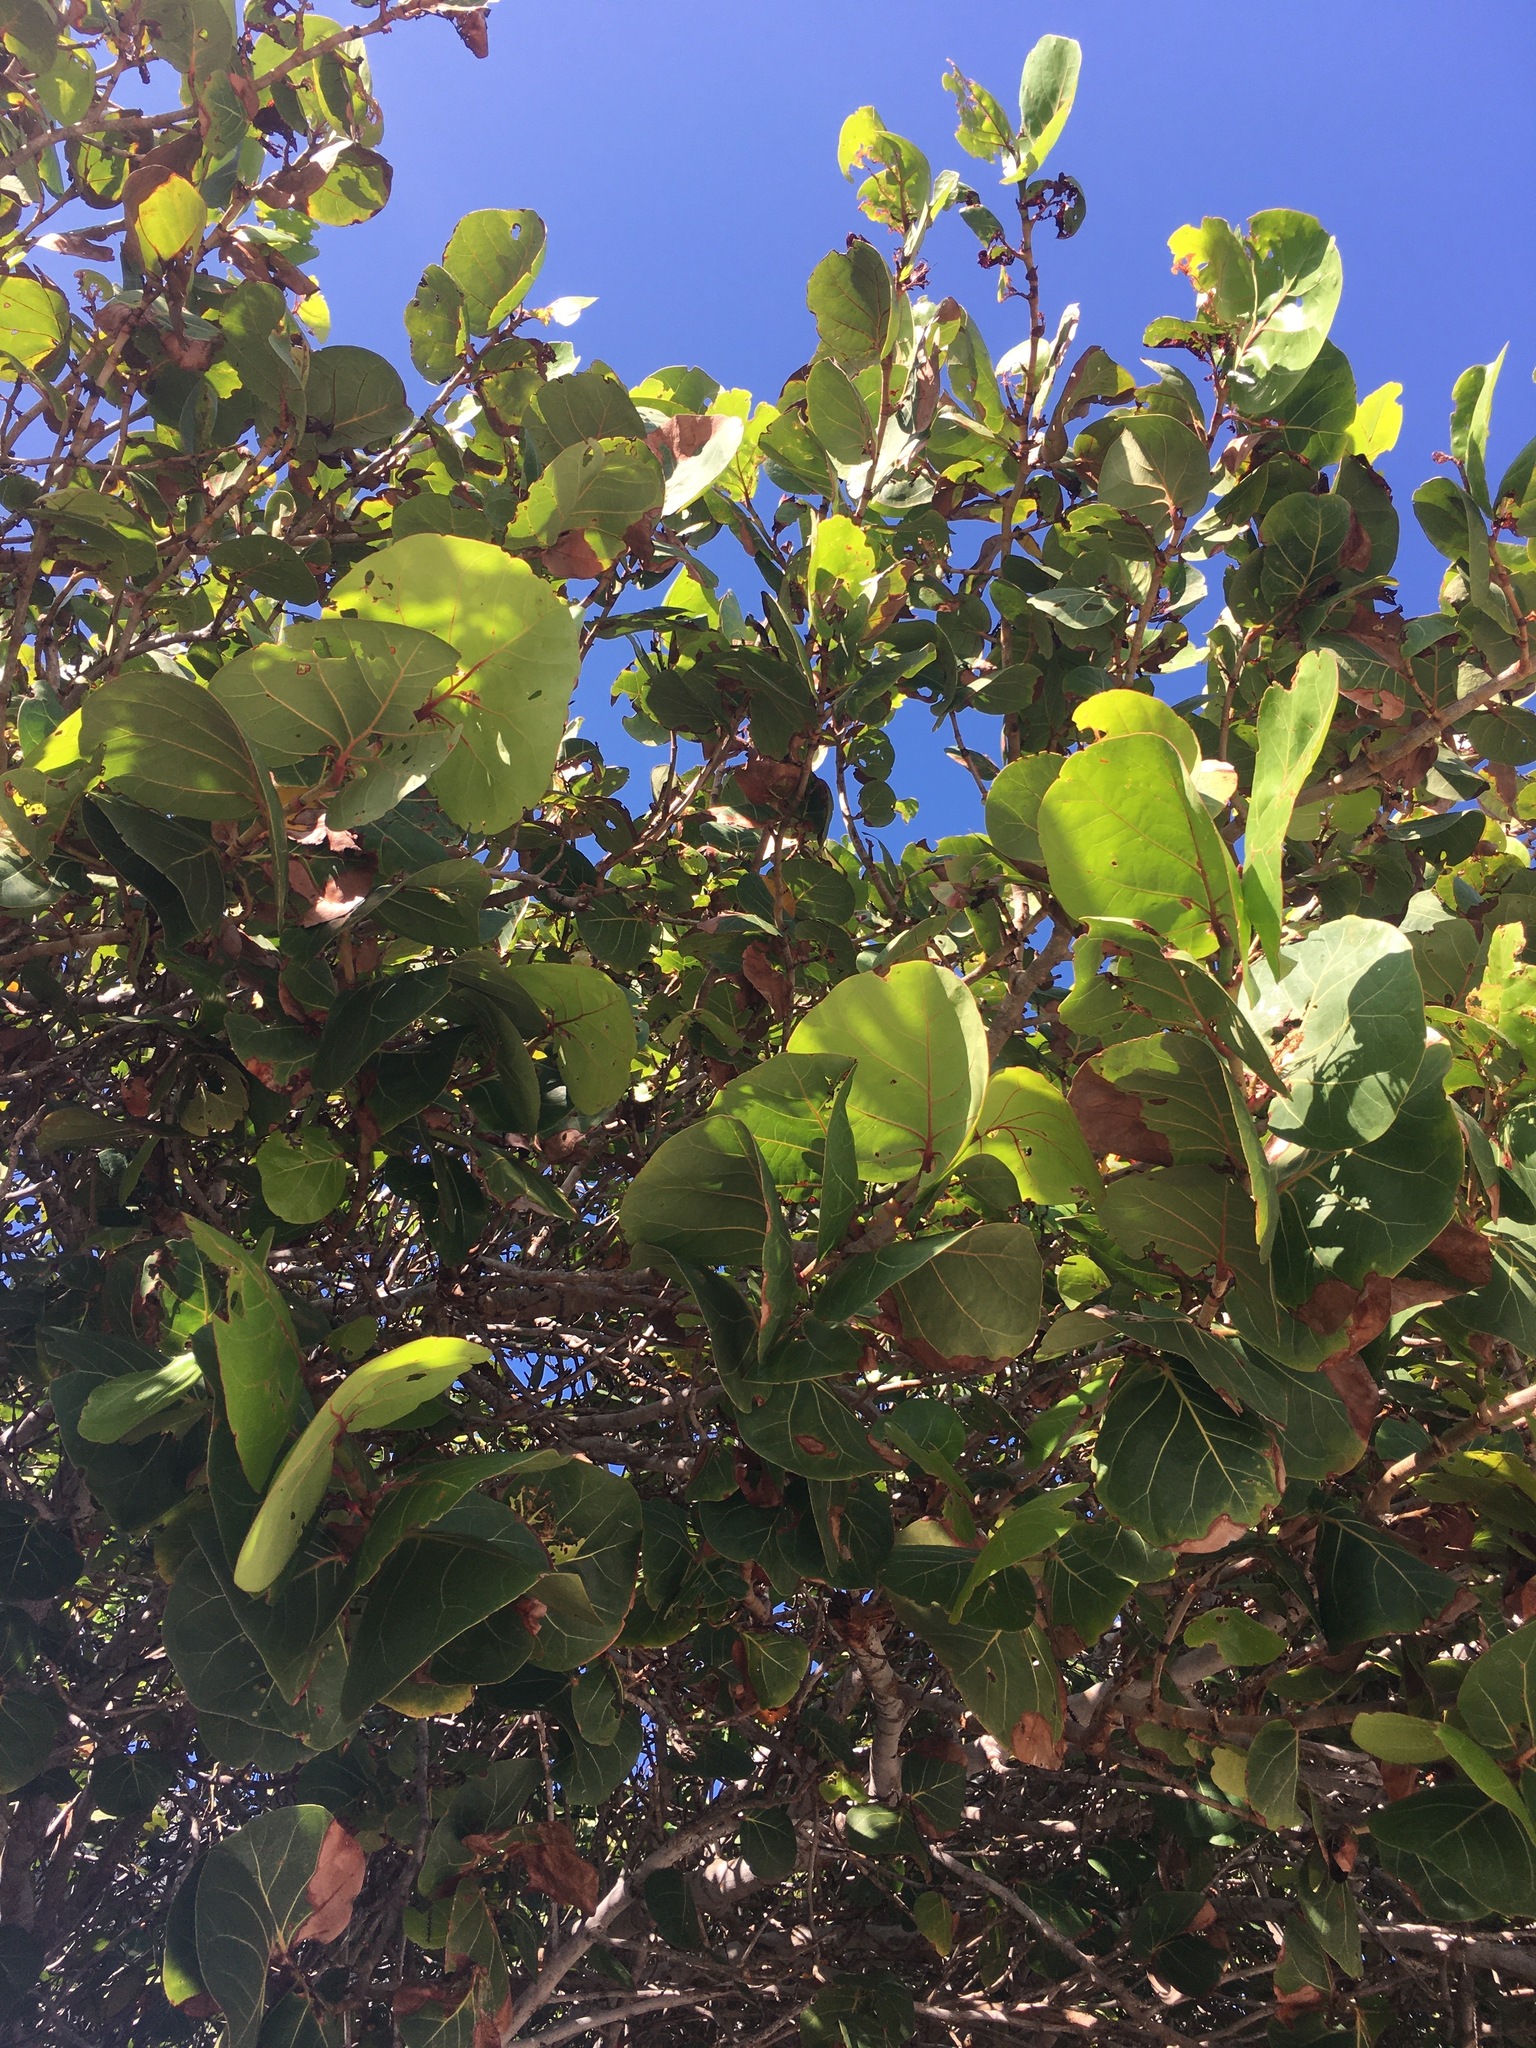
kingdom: Plantae
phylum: Tracheophyta
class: Magnoliopsida
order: Caryophyllales
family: Polygonaceae
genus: Coccoloba
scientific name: Coccoloba uvifera
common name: Seagrape
